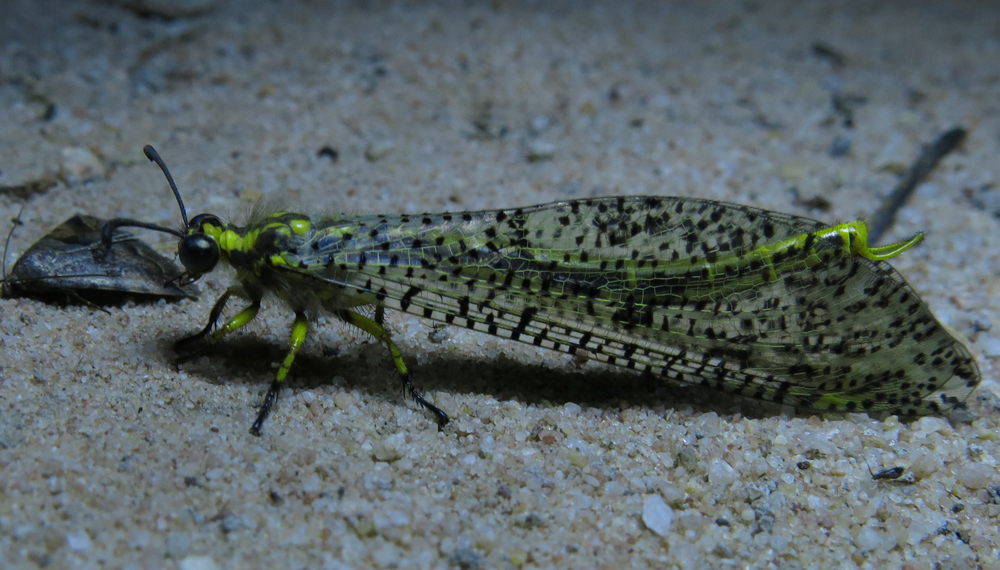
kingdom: Animalia
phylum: Arthropoda
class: Insecta
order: Neuroptera
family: Myrmeleontidae
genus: Palpares
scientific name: Palpares sobrinus
